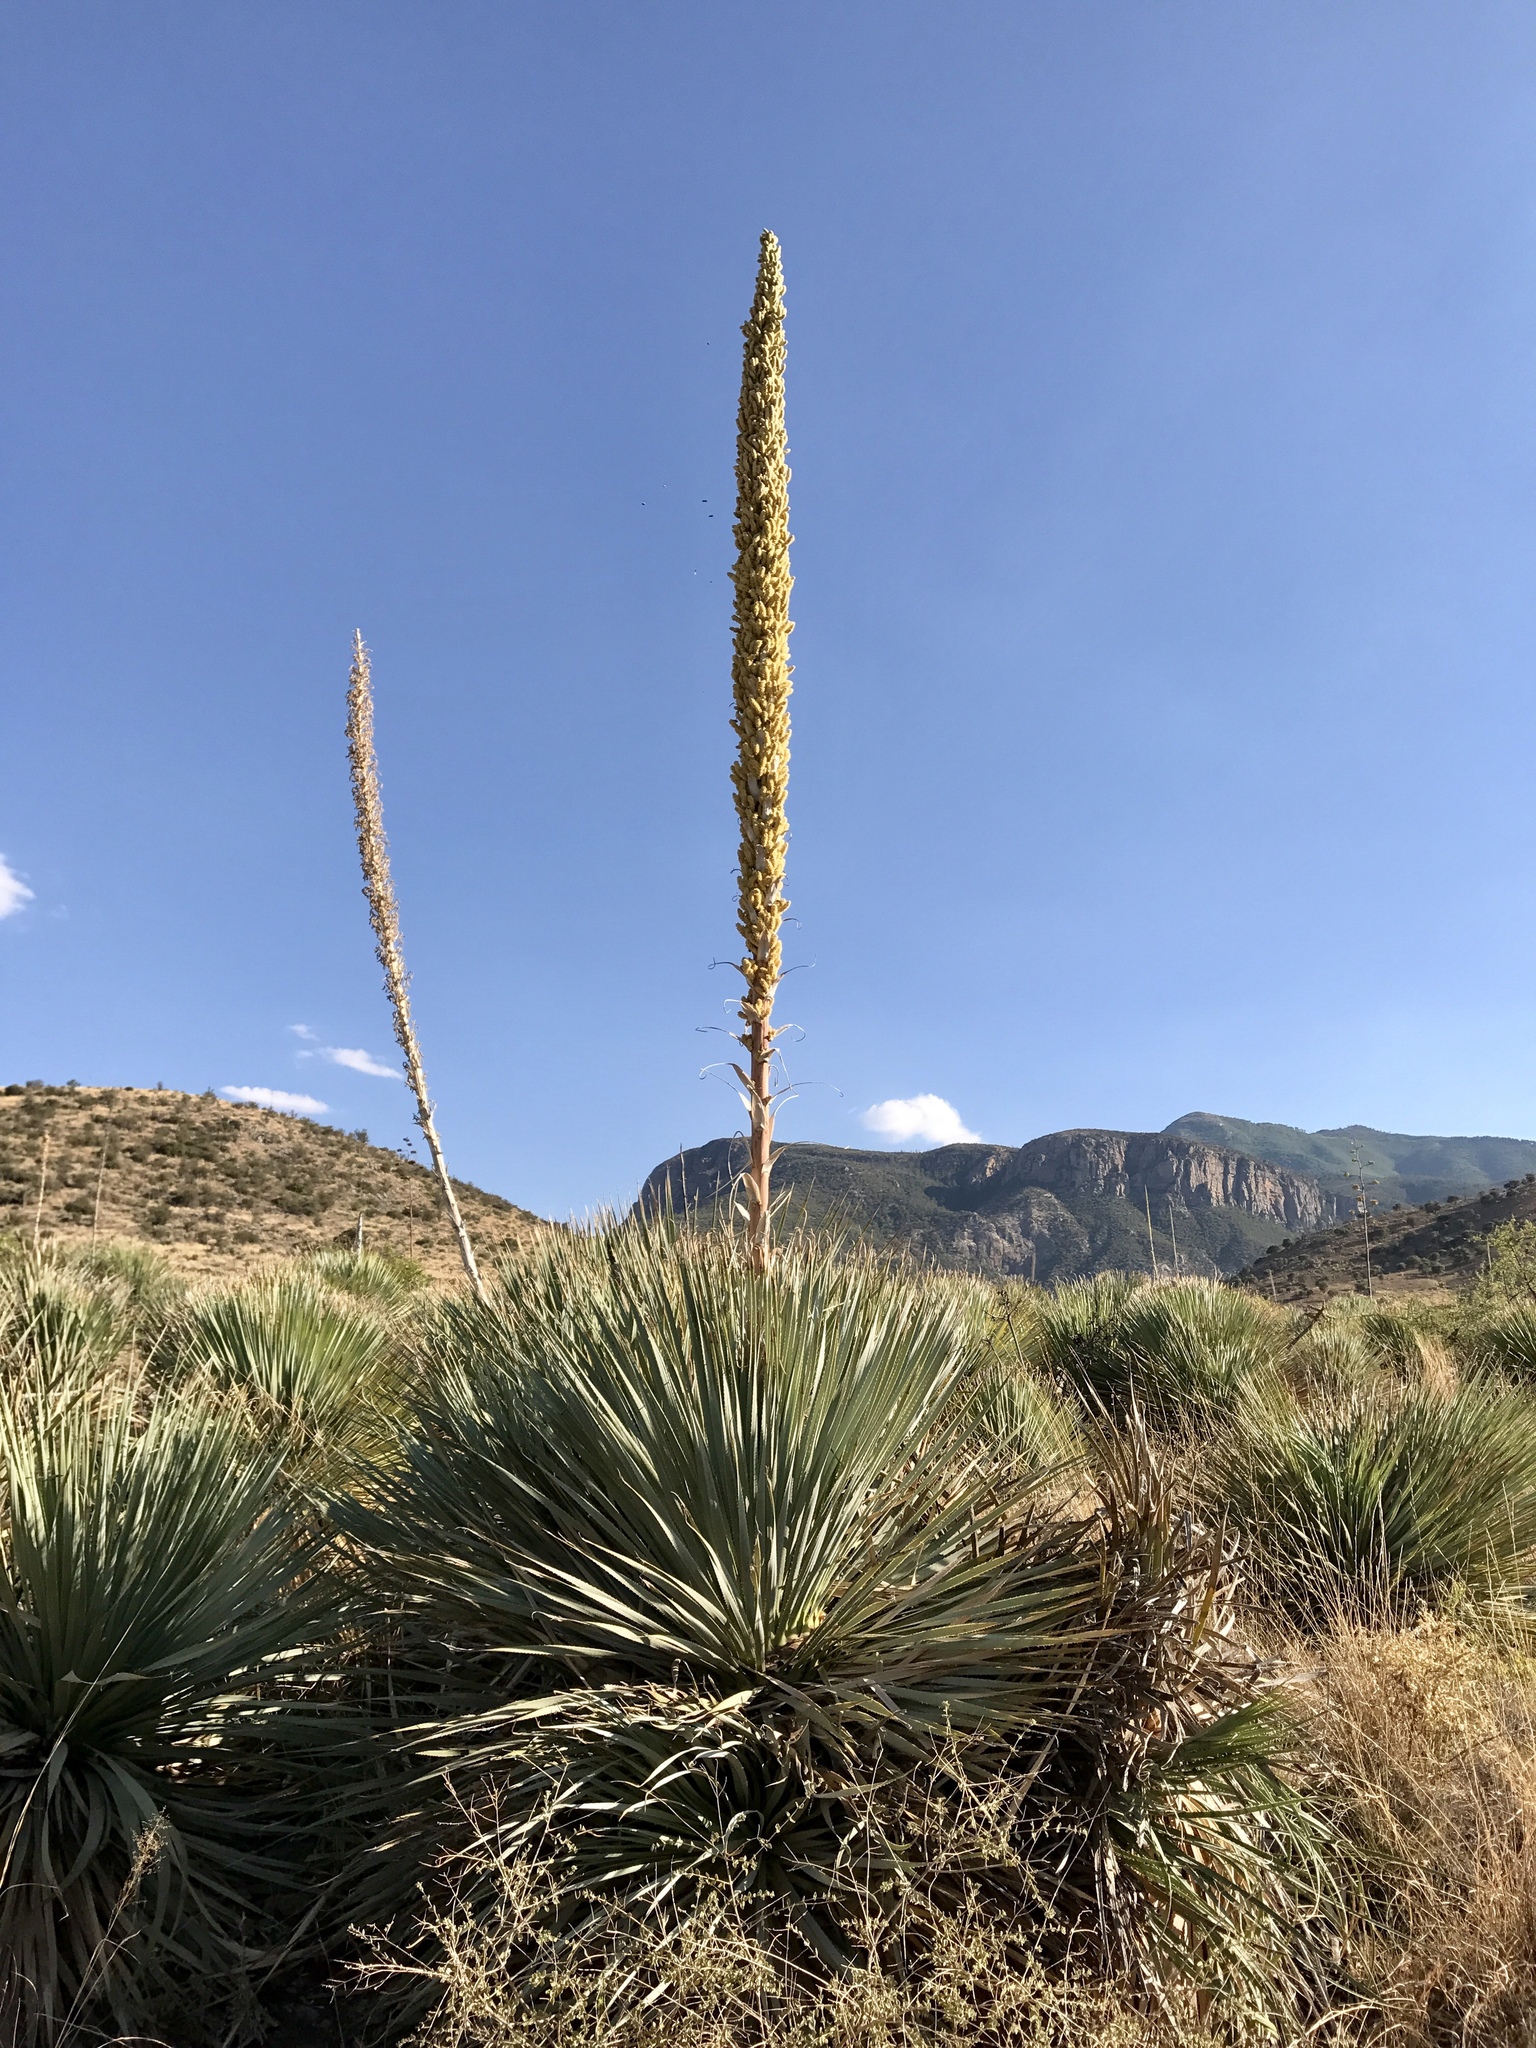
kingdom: Plantae
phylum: Tracheophyta
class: Liliopsida
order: Asparagales
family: Asparagaceae
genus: Dasylirion
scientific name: Dasylirion wheeleri
